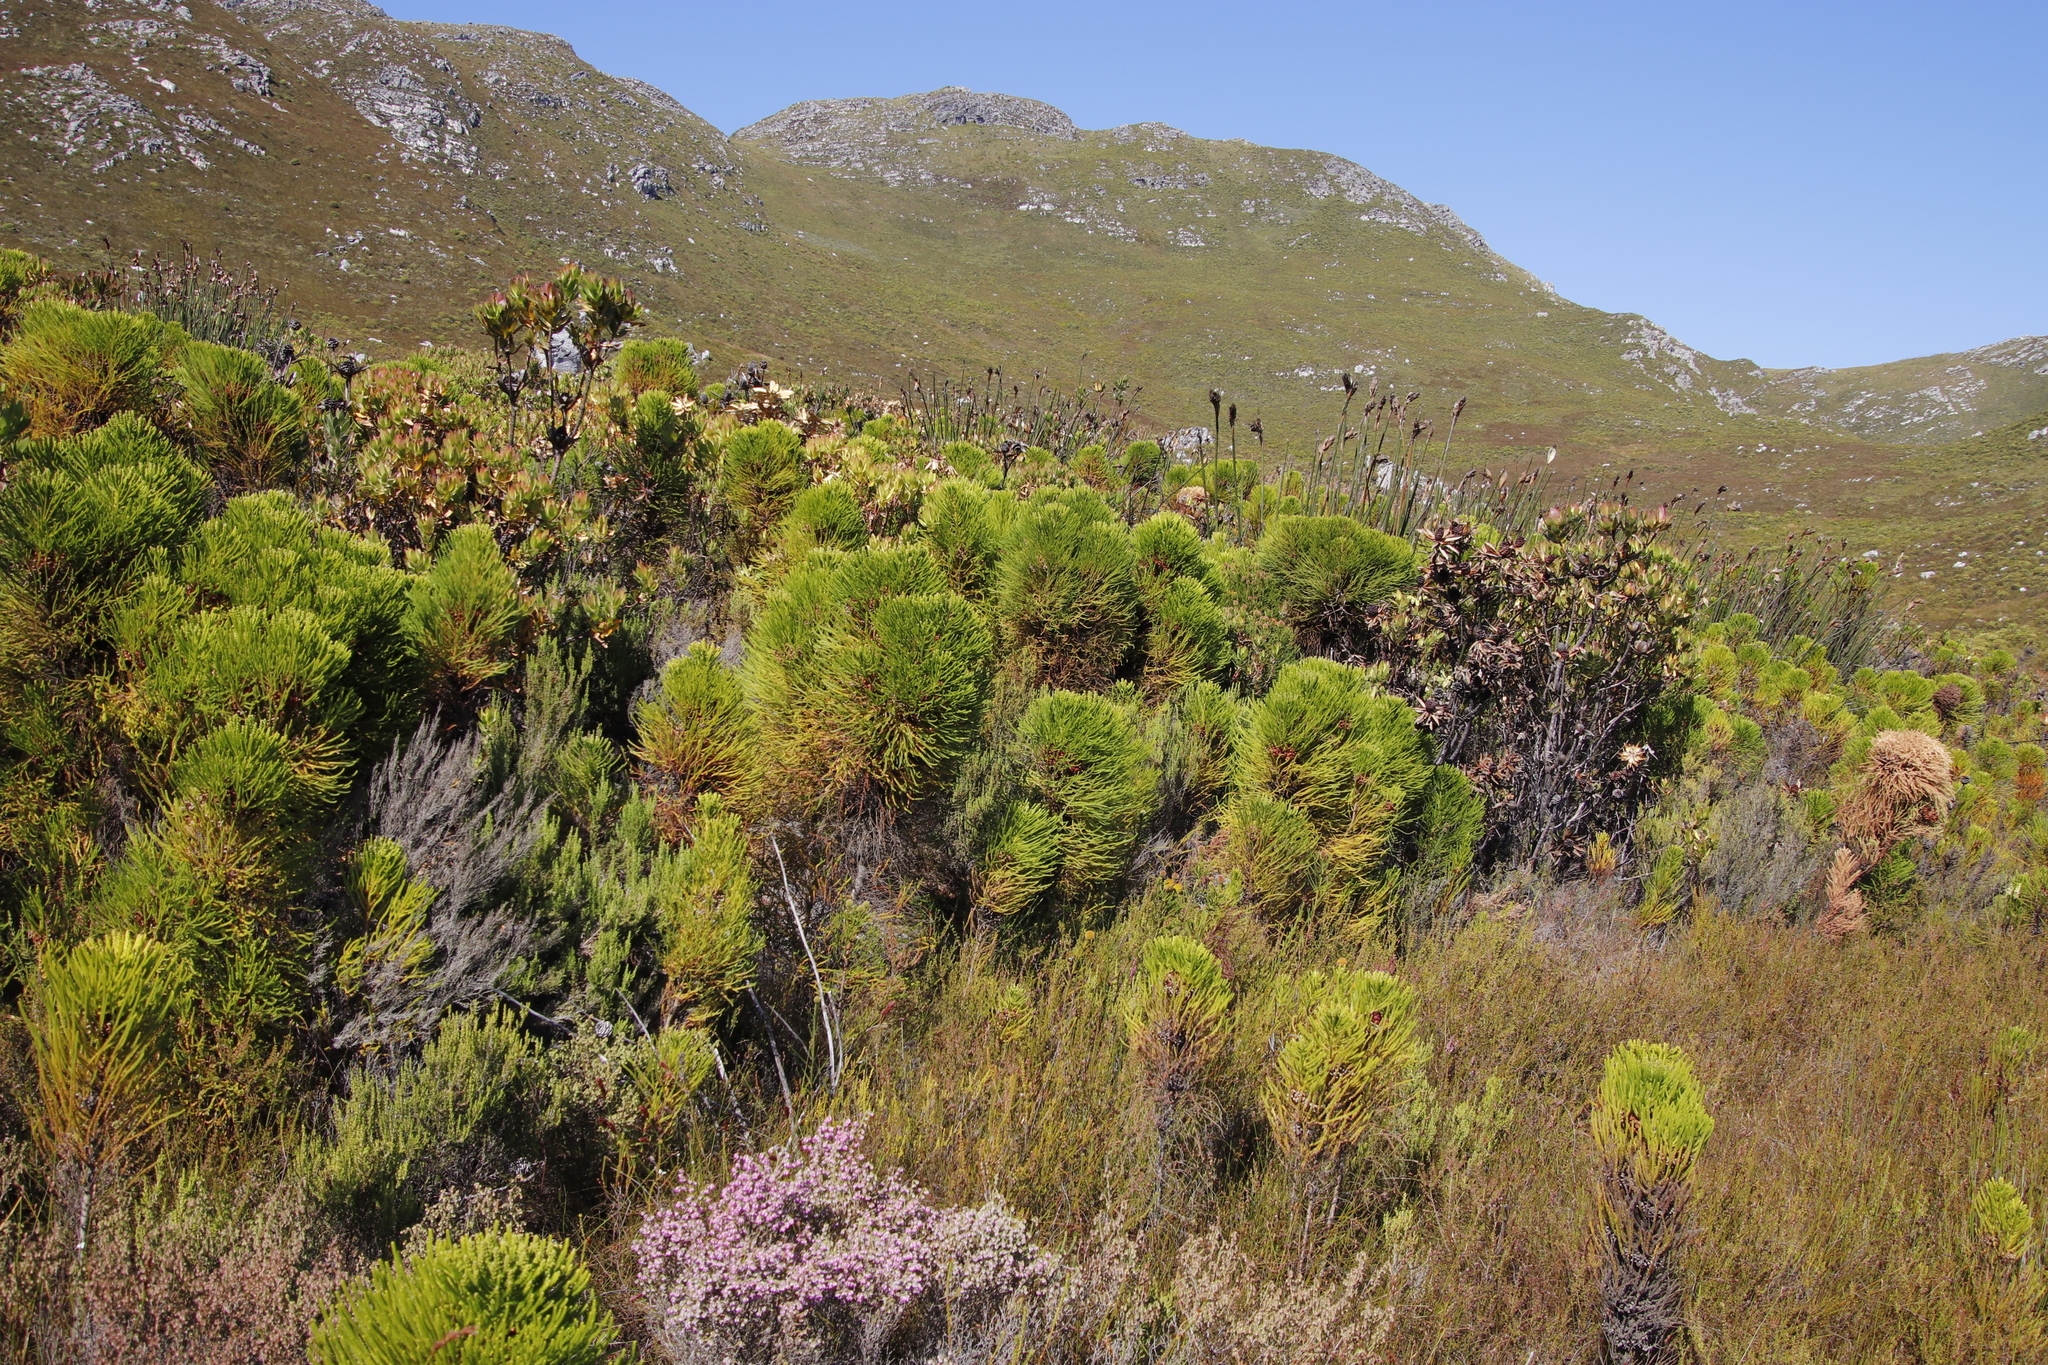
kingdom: Plantae
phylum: Tracheophyta
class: Magnoliopsida
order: Bruniales
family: Bruniaceae
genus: Berzelia
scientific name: Berzelia alopecurioides
